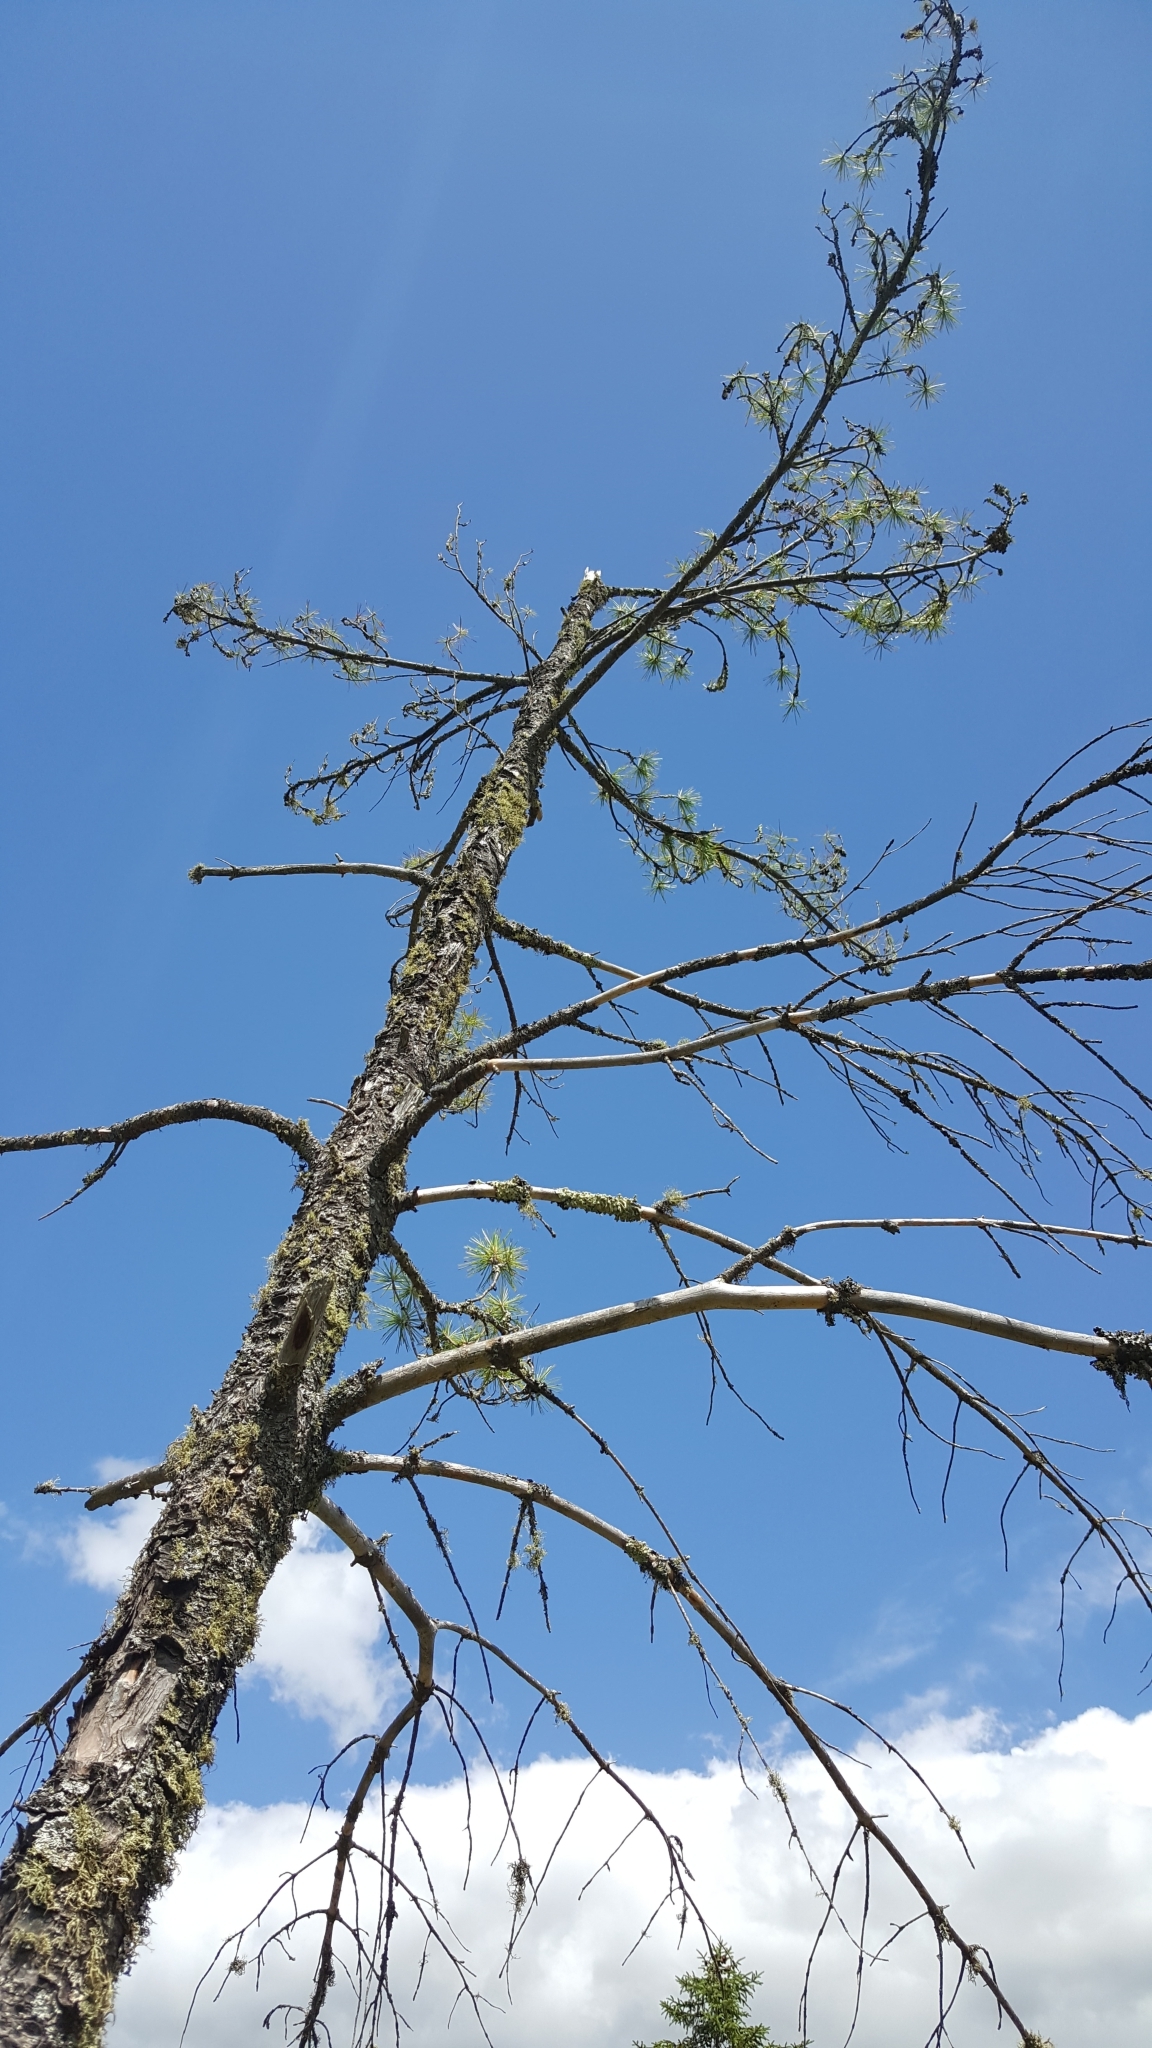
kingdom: Plantae
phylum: Tracheophyta
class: Pinopsida
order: Pinales
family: Pinaceae
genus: Pinus
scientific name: Pinus strobus
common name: Weymouth pine
